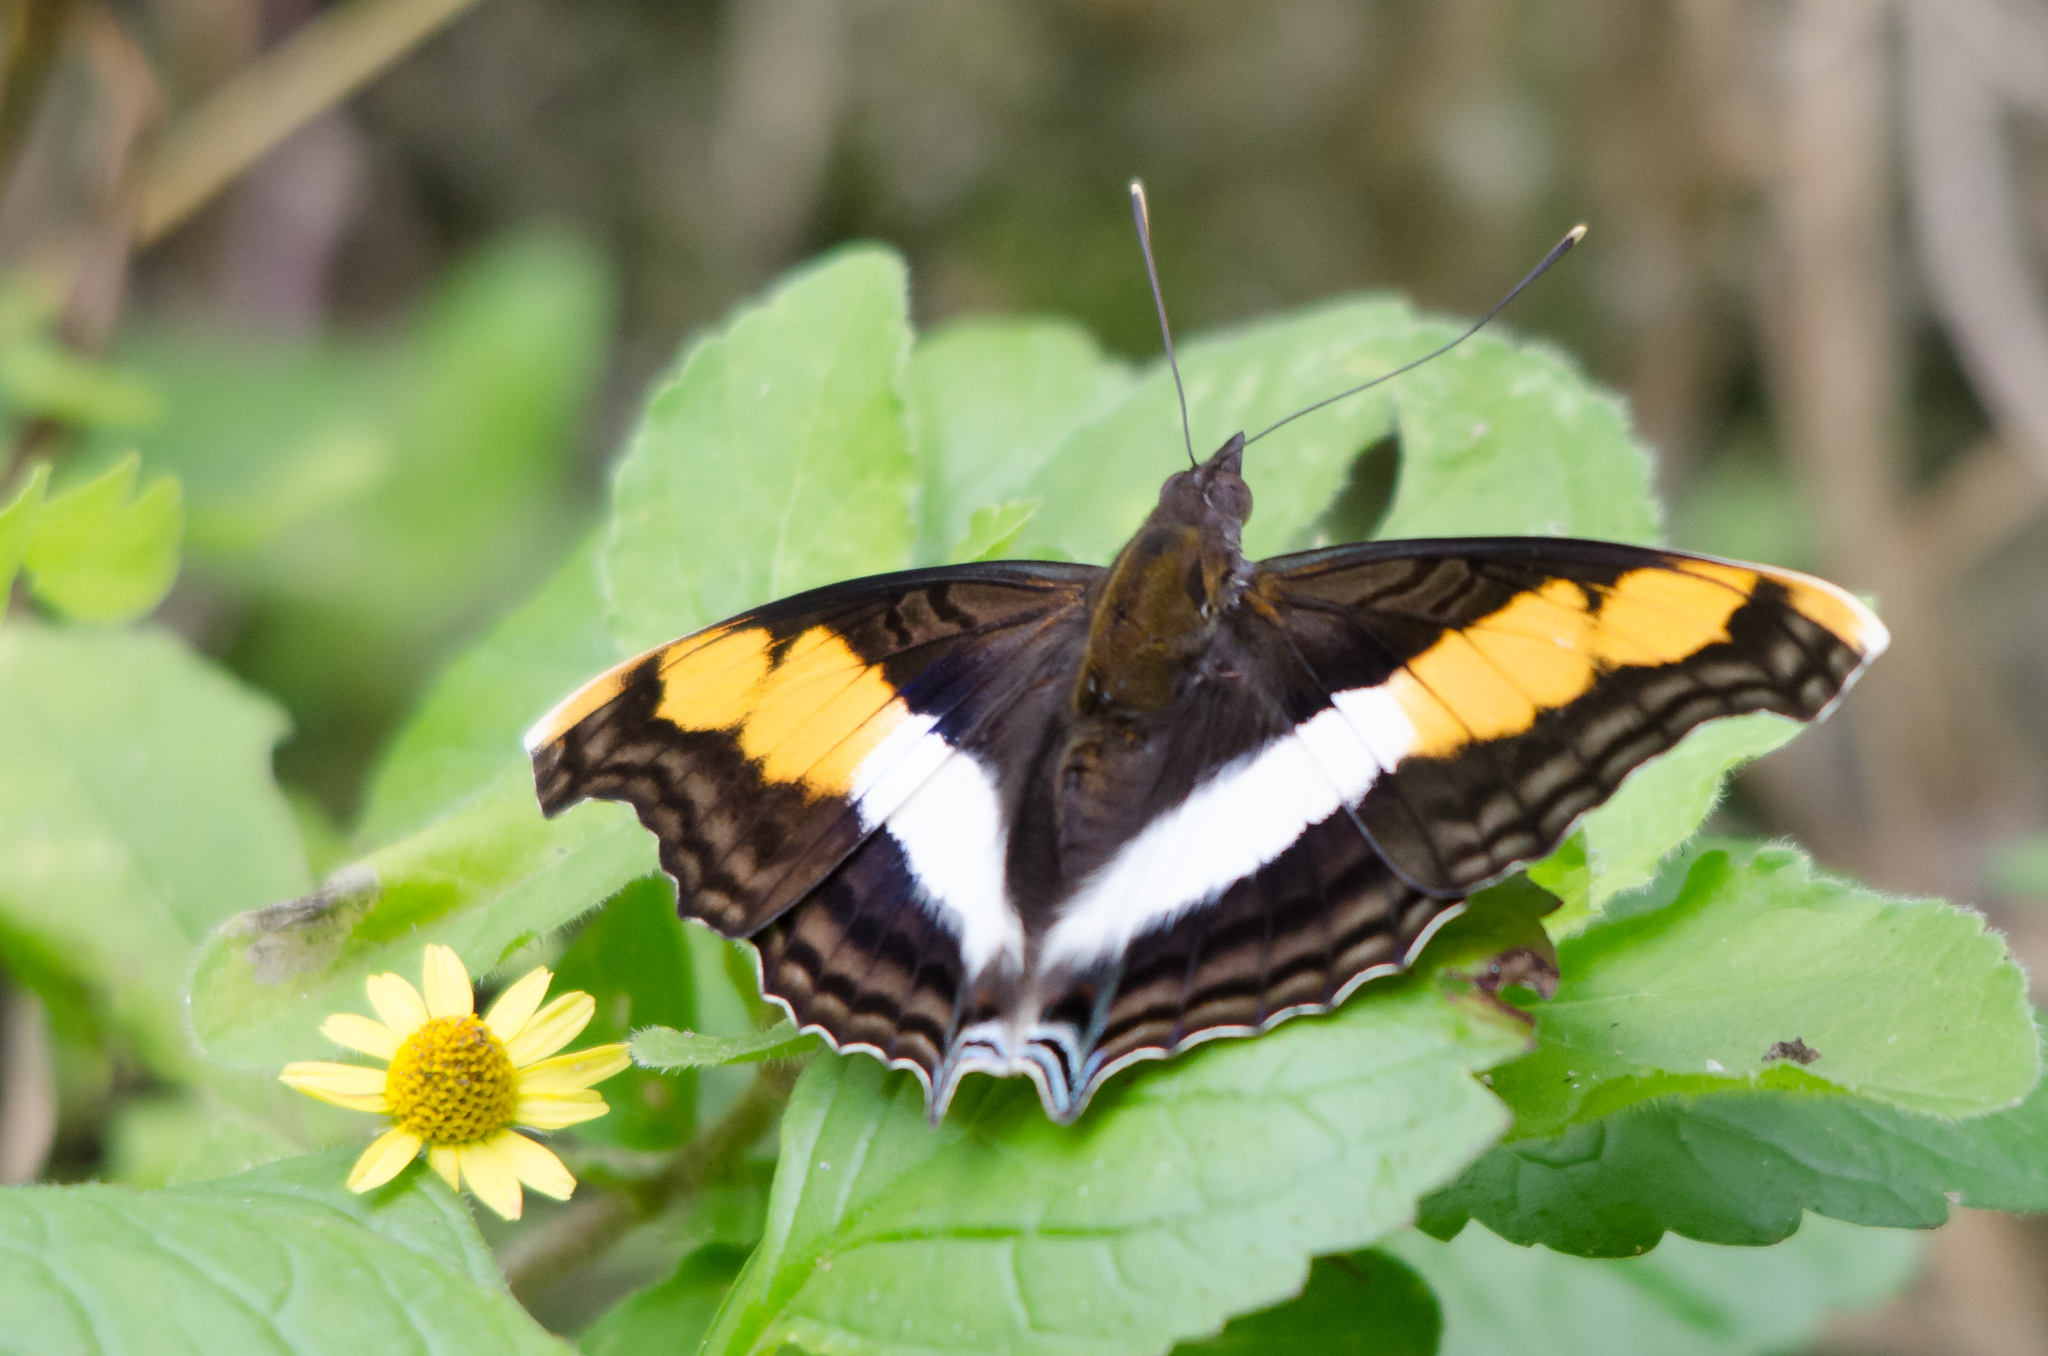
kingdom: Animalia
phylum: Arthropoda
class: Insecta
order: Lepidoptera
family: Nymphalidae
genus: Doxocopa
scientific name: Doxocopa laure
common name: Silver emperor
